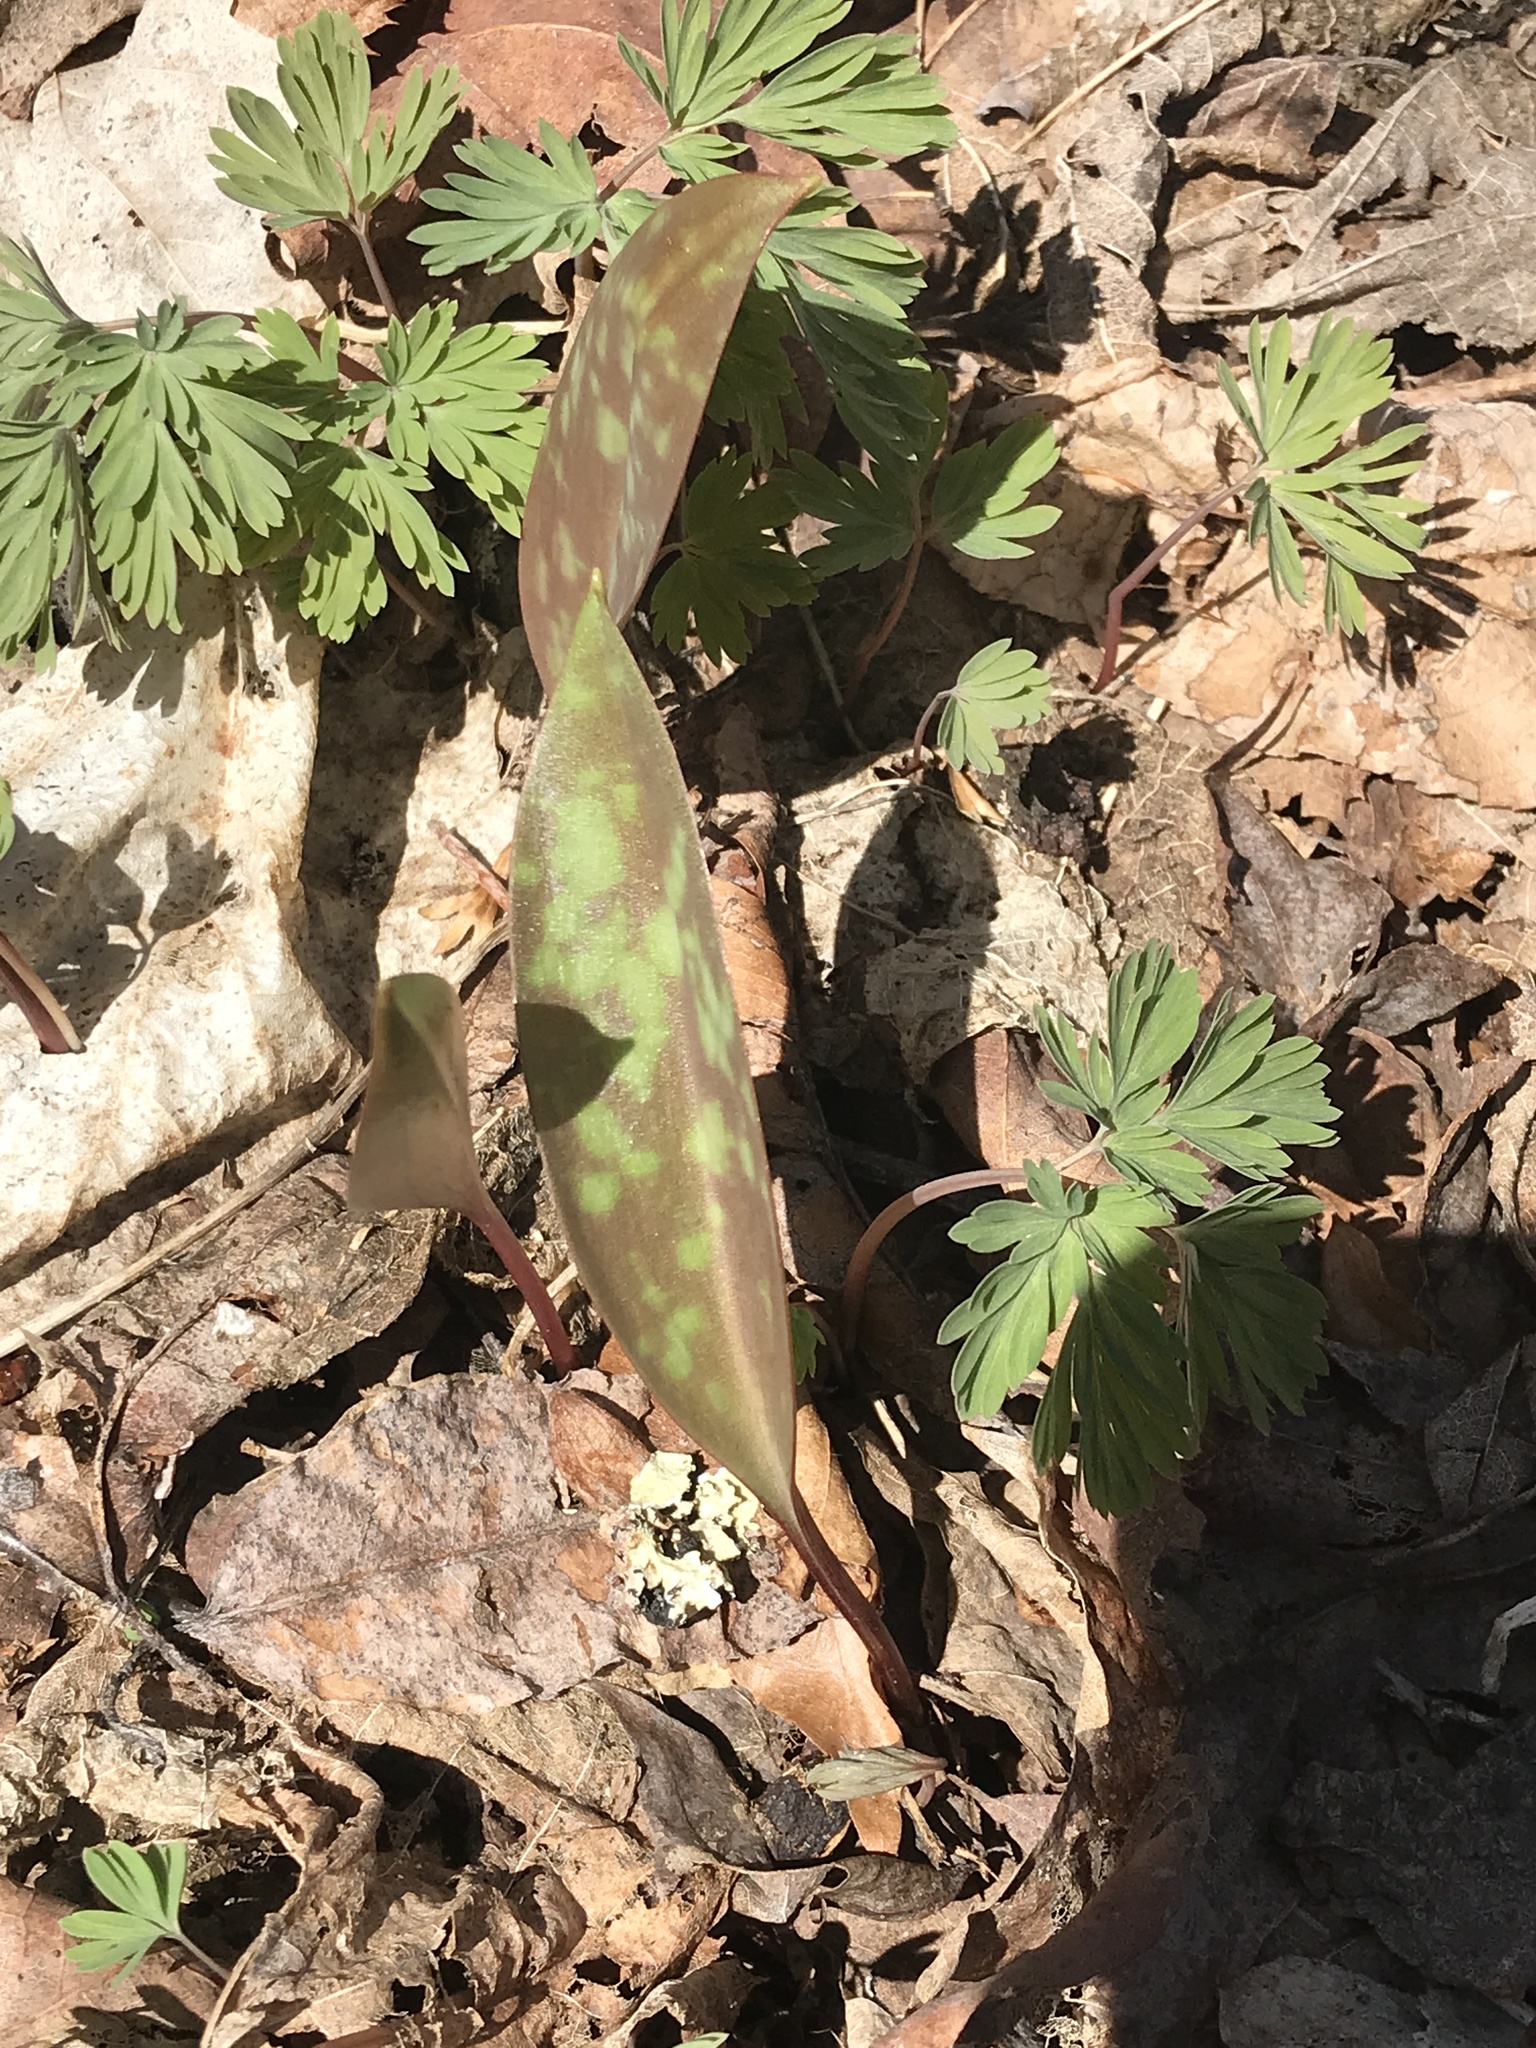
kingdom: Plantae
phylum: Tracheophyta
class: Liliopsida
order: Liliales
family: Liliaceae
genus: Erythronium
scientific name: Erythronium americanum
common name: Yellow adder's-tongue
